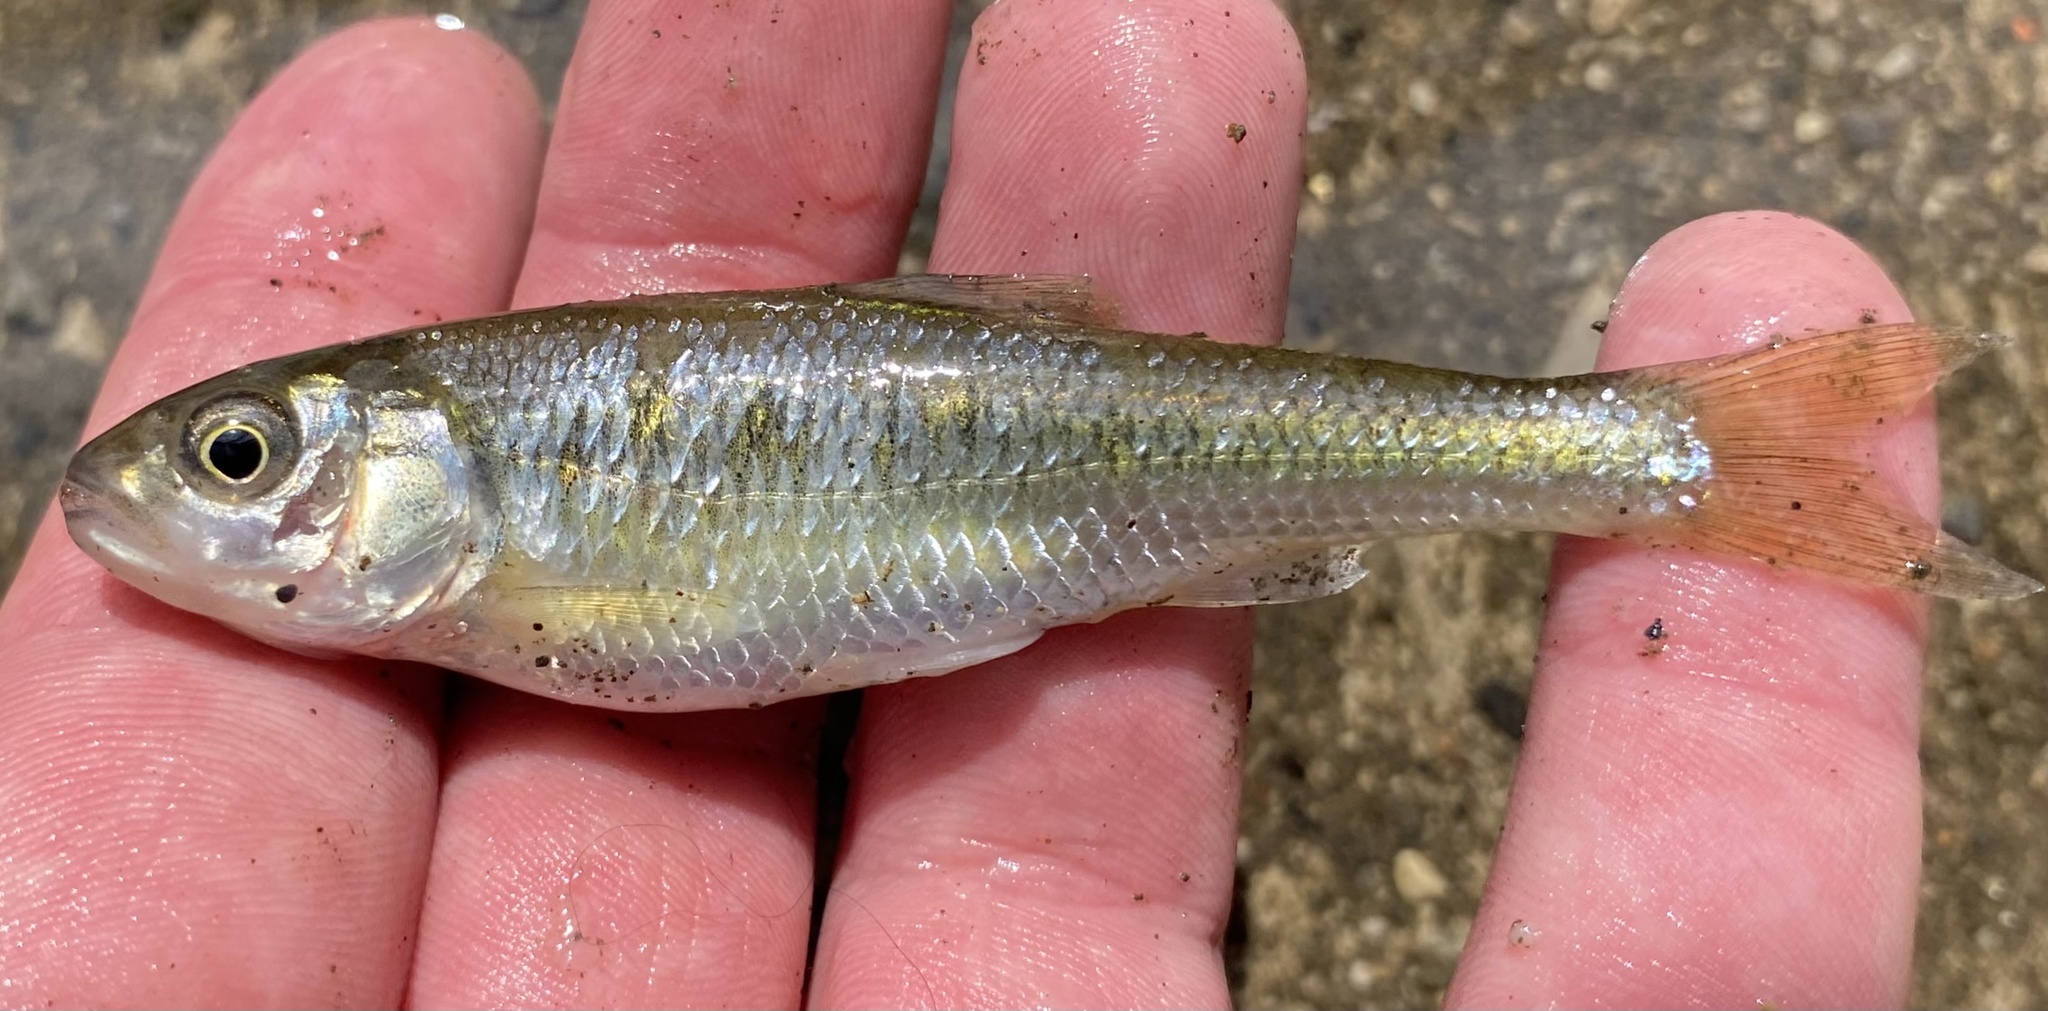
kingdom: Animalia
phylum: Chordata
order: Cypriniformes
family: Cyprinidae
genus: Luxilus
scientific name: Luxilus cornutus
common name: Common shiner
